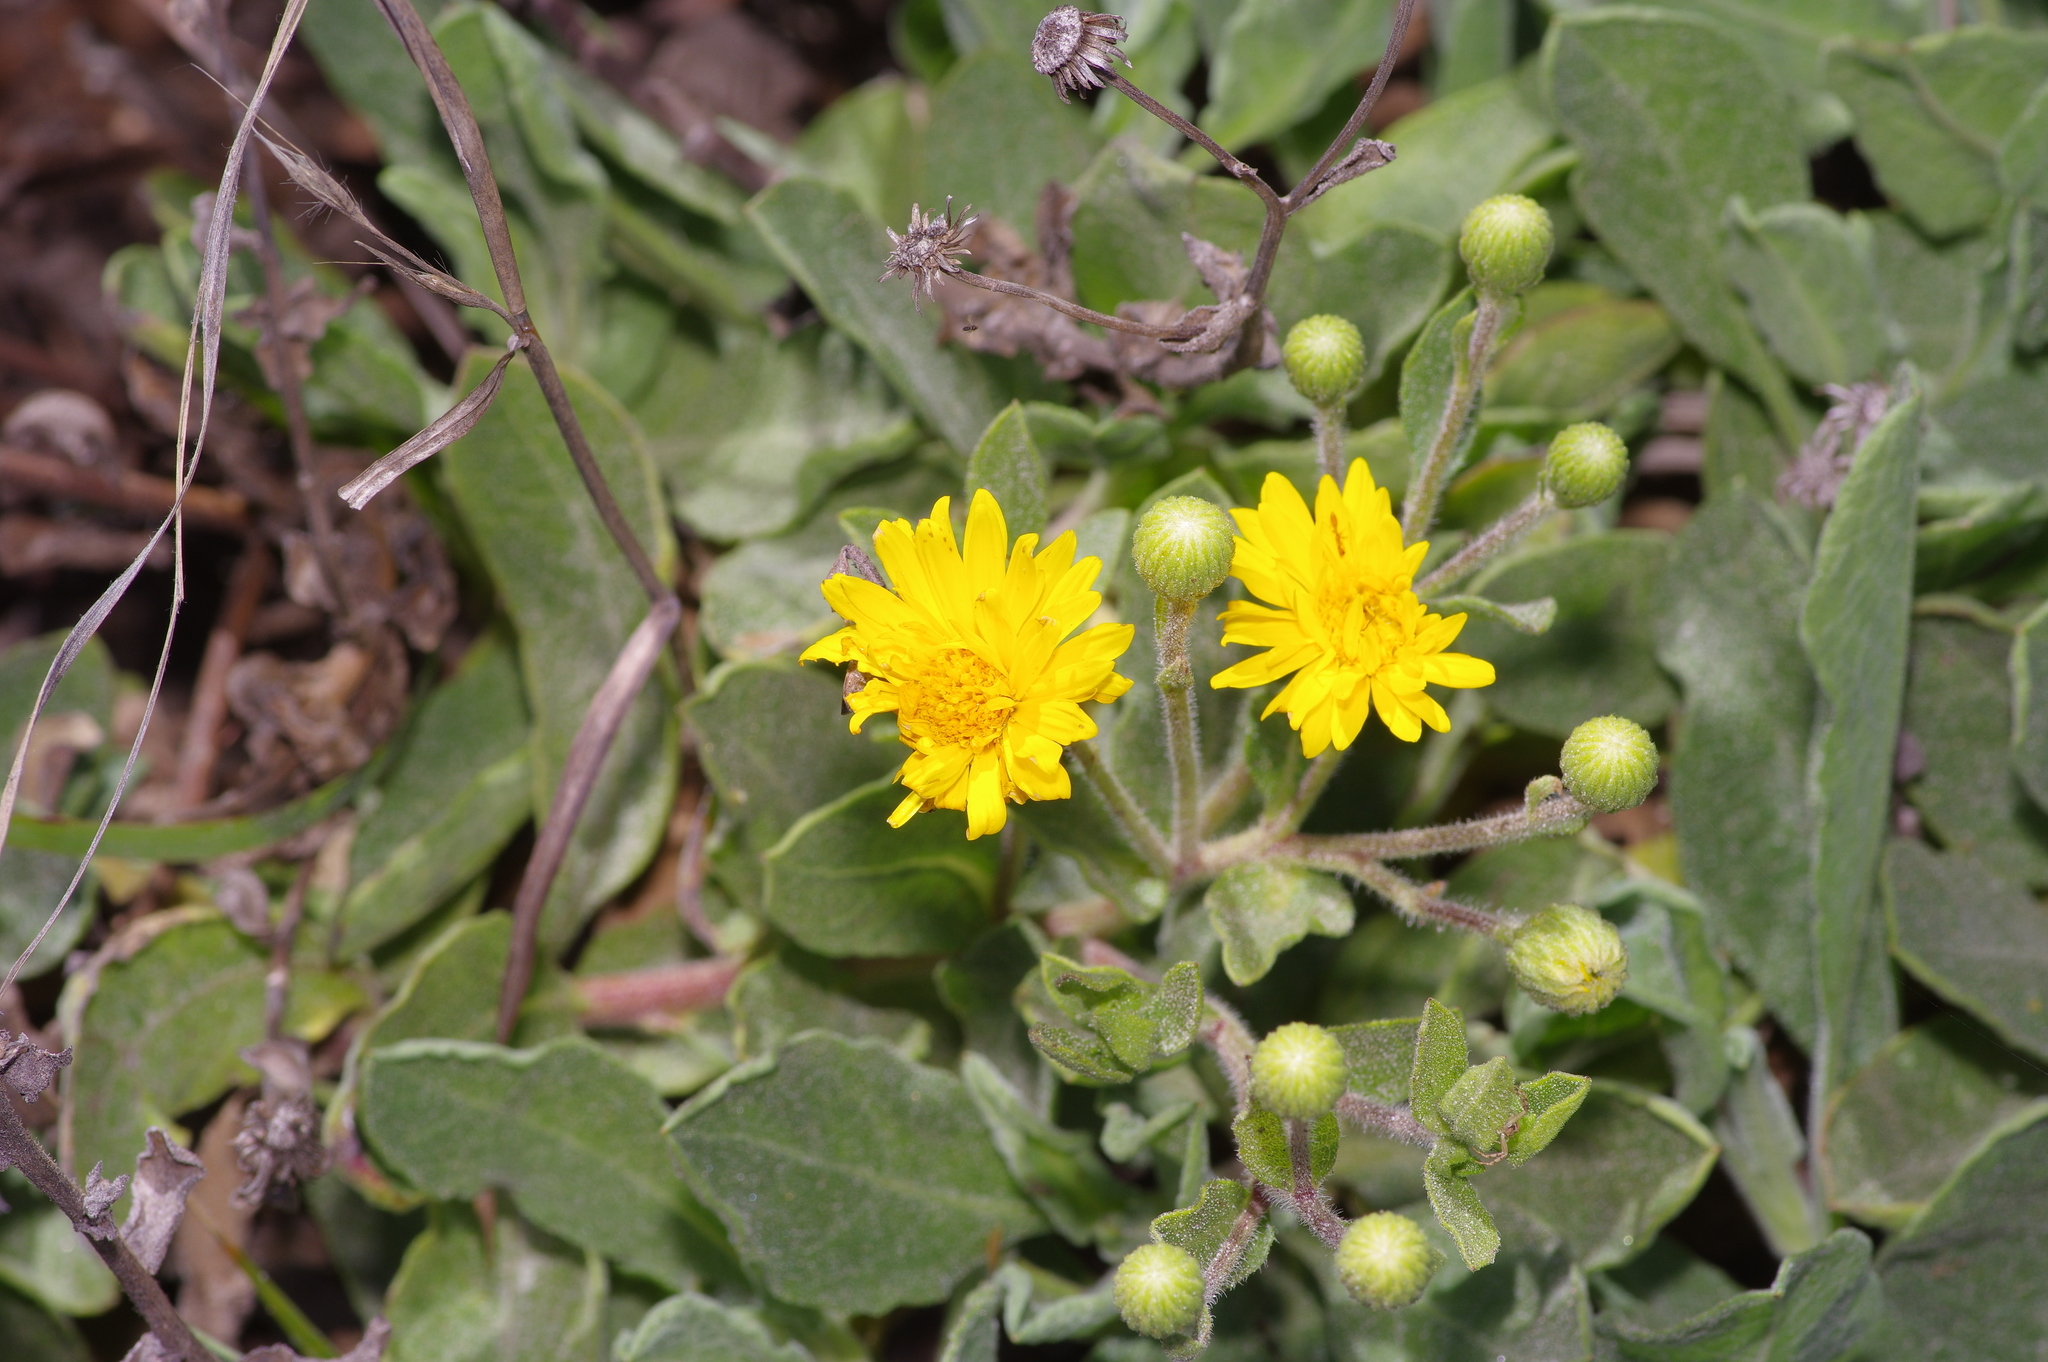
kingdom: Plantae
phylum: Tracheophyta
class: Magnoliopsida
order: Asterales
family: Asteraceae
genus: Heterotheca
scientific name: Heterotheca subaxillaris
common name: Camphorweed
